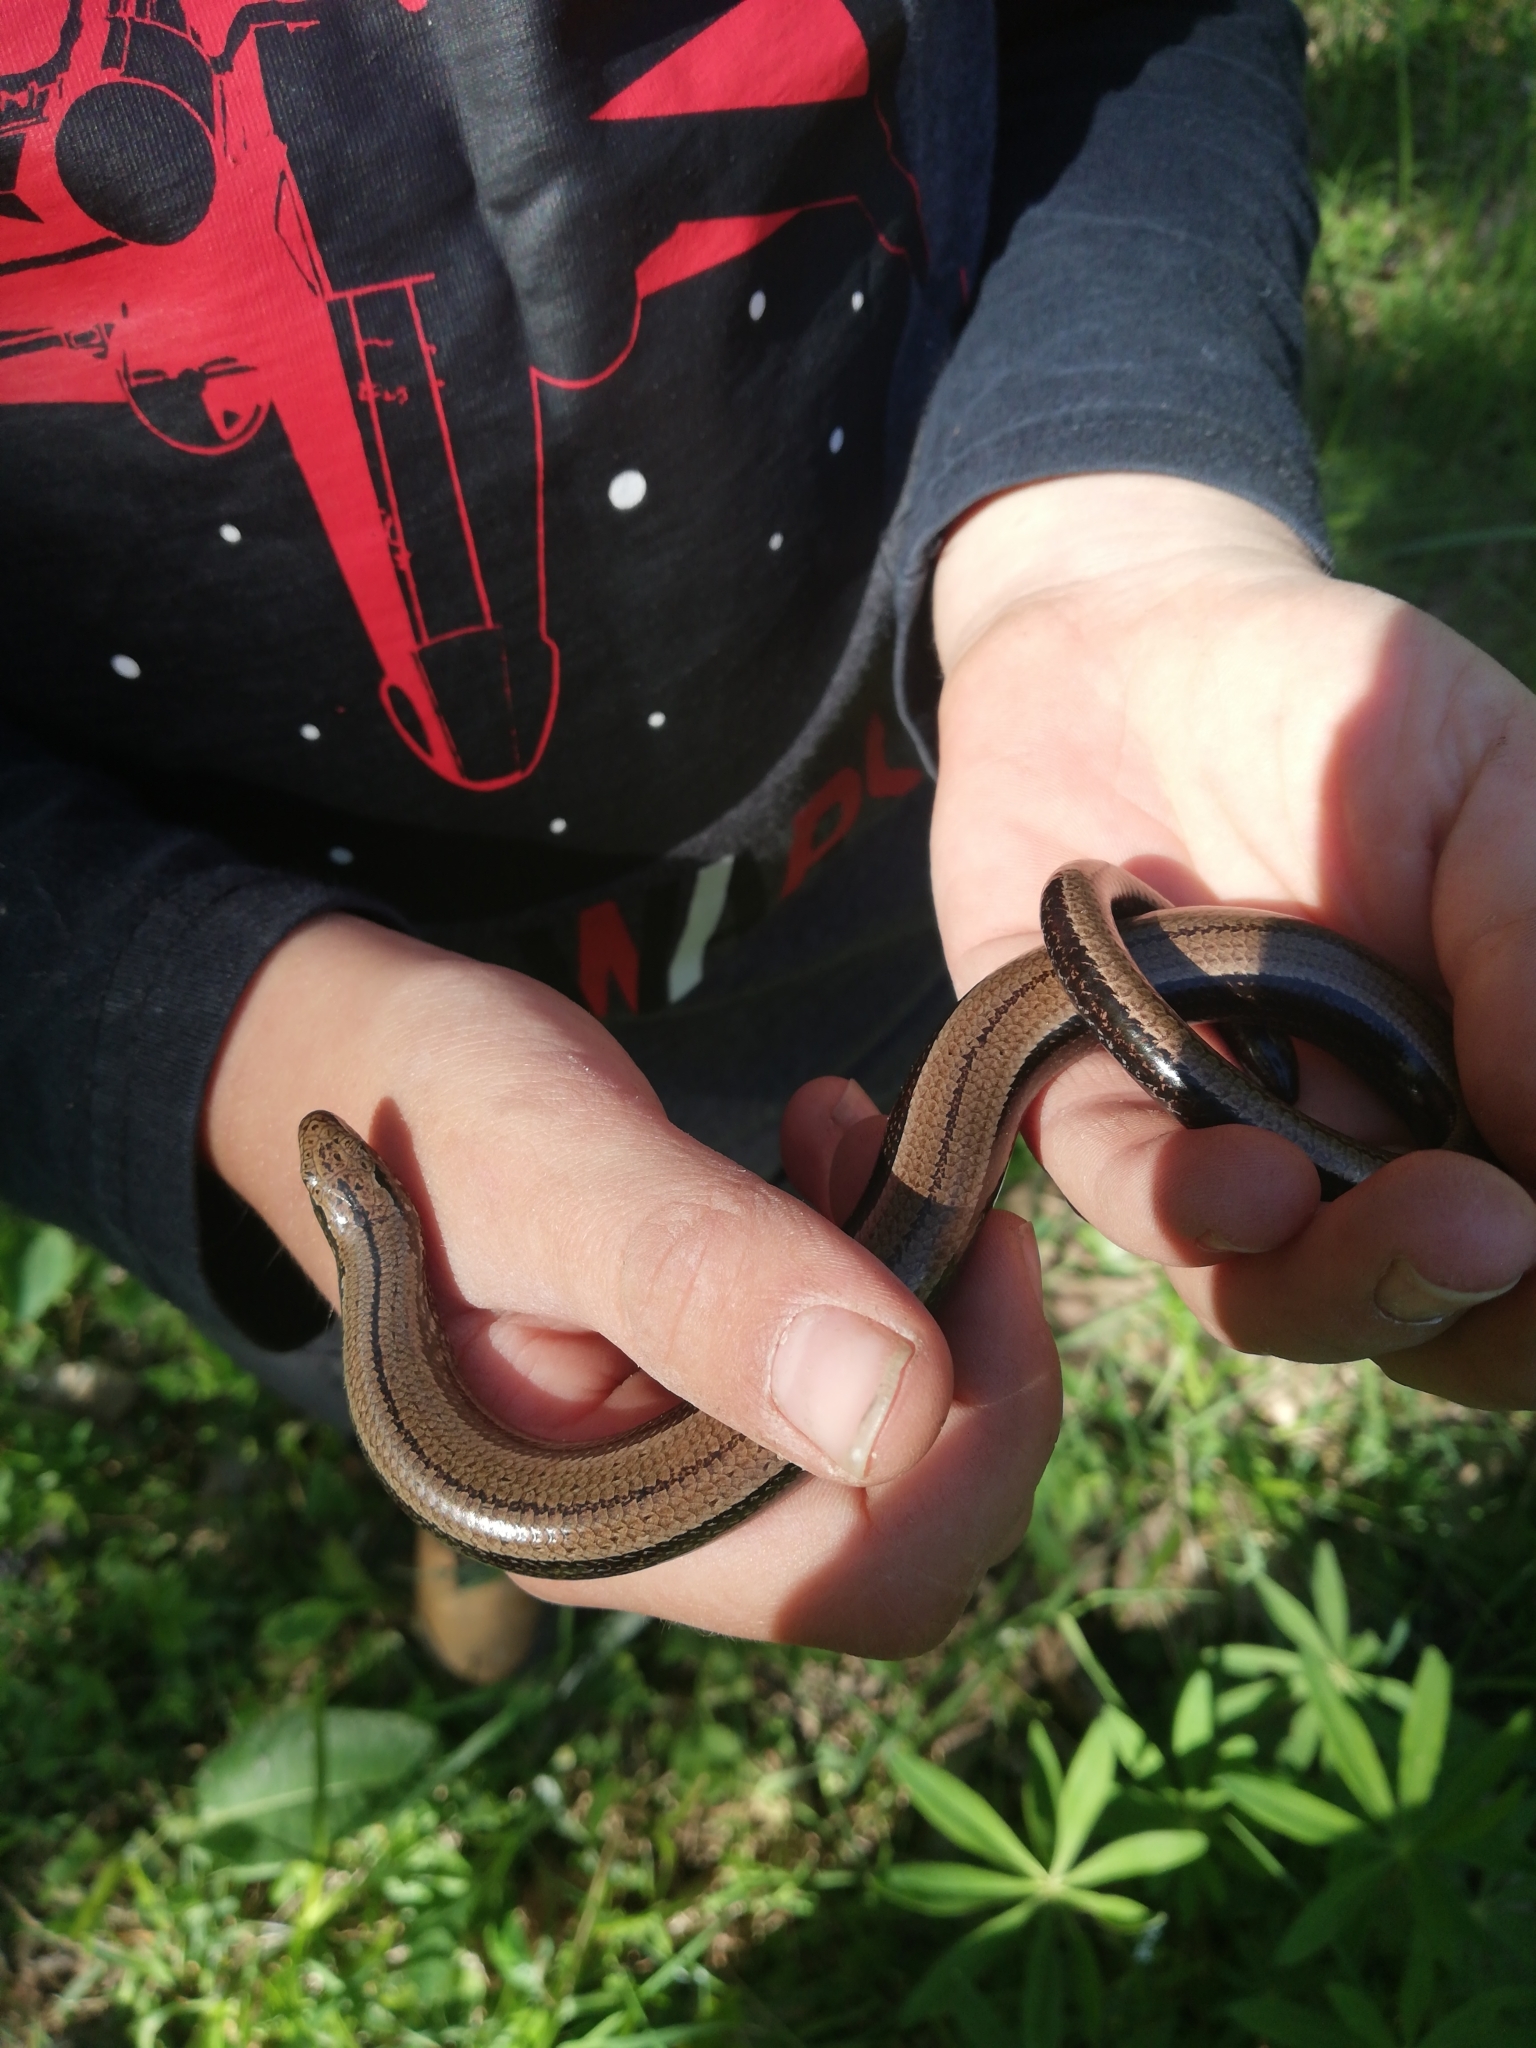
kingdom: Animalia
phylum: Chordata
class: Squamata
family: Anguidae
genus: Anguis
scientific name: Anguis fragilis
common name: Slow worm
